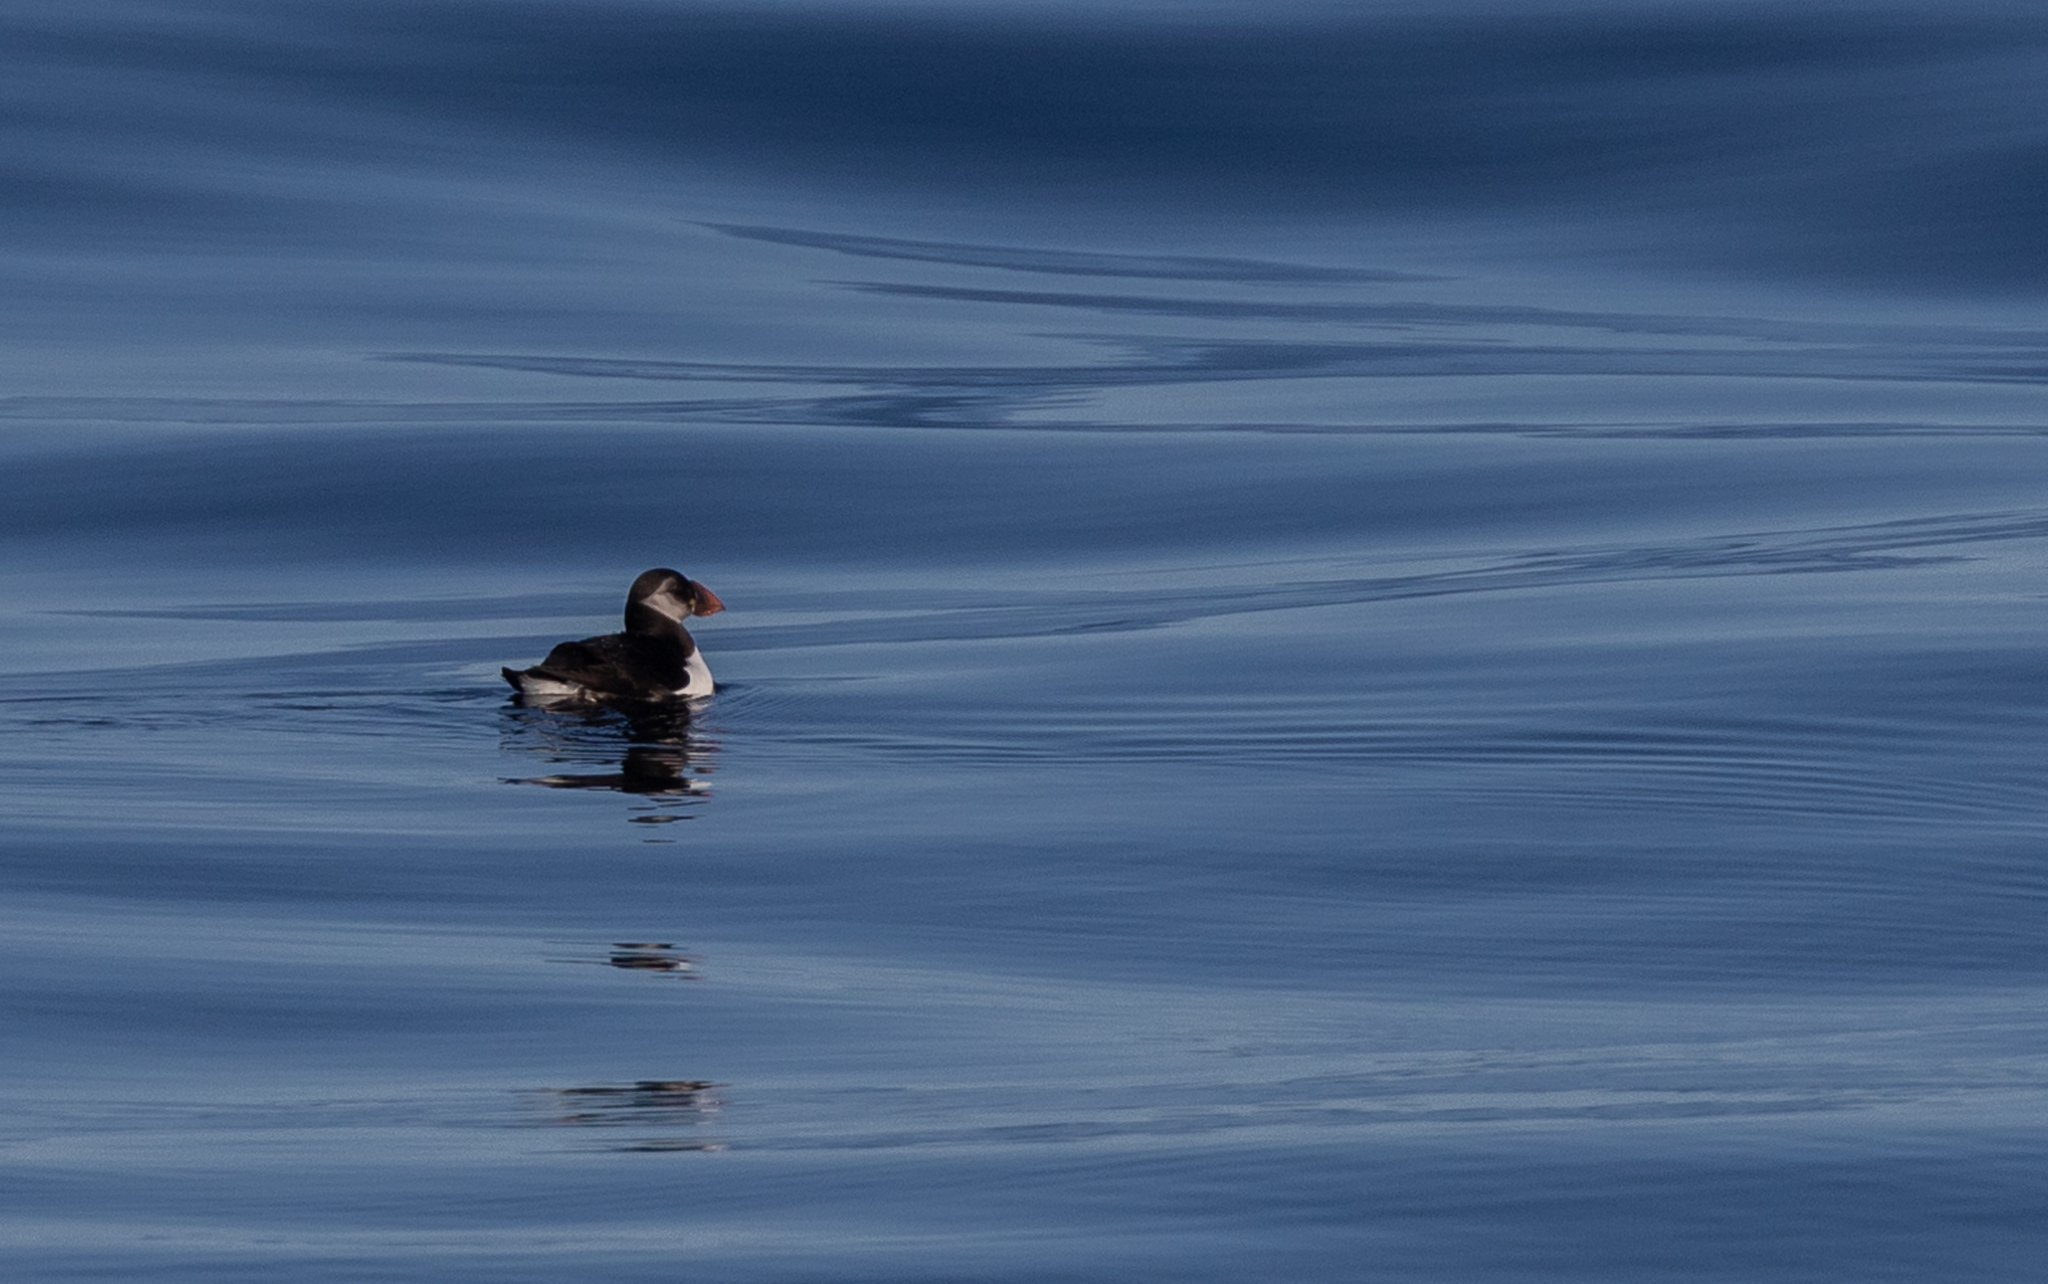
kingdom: Animalia
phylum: Chordata
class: Aves
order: Charadriiformes
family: Alcidae
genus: Fratercula
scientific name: Fratercula arctica
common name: Atlantic puffin
